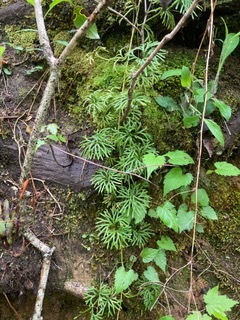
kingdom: Plantae
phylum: Tracheophyta
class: Lycopodiopsida
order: Lycopodiales
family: Lycopodiaceae
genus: Diphasiastrum
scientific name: Diphasiastrum digitatum
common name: Southern running-pine
